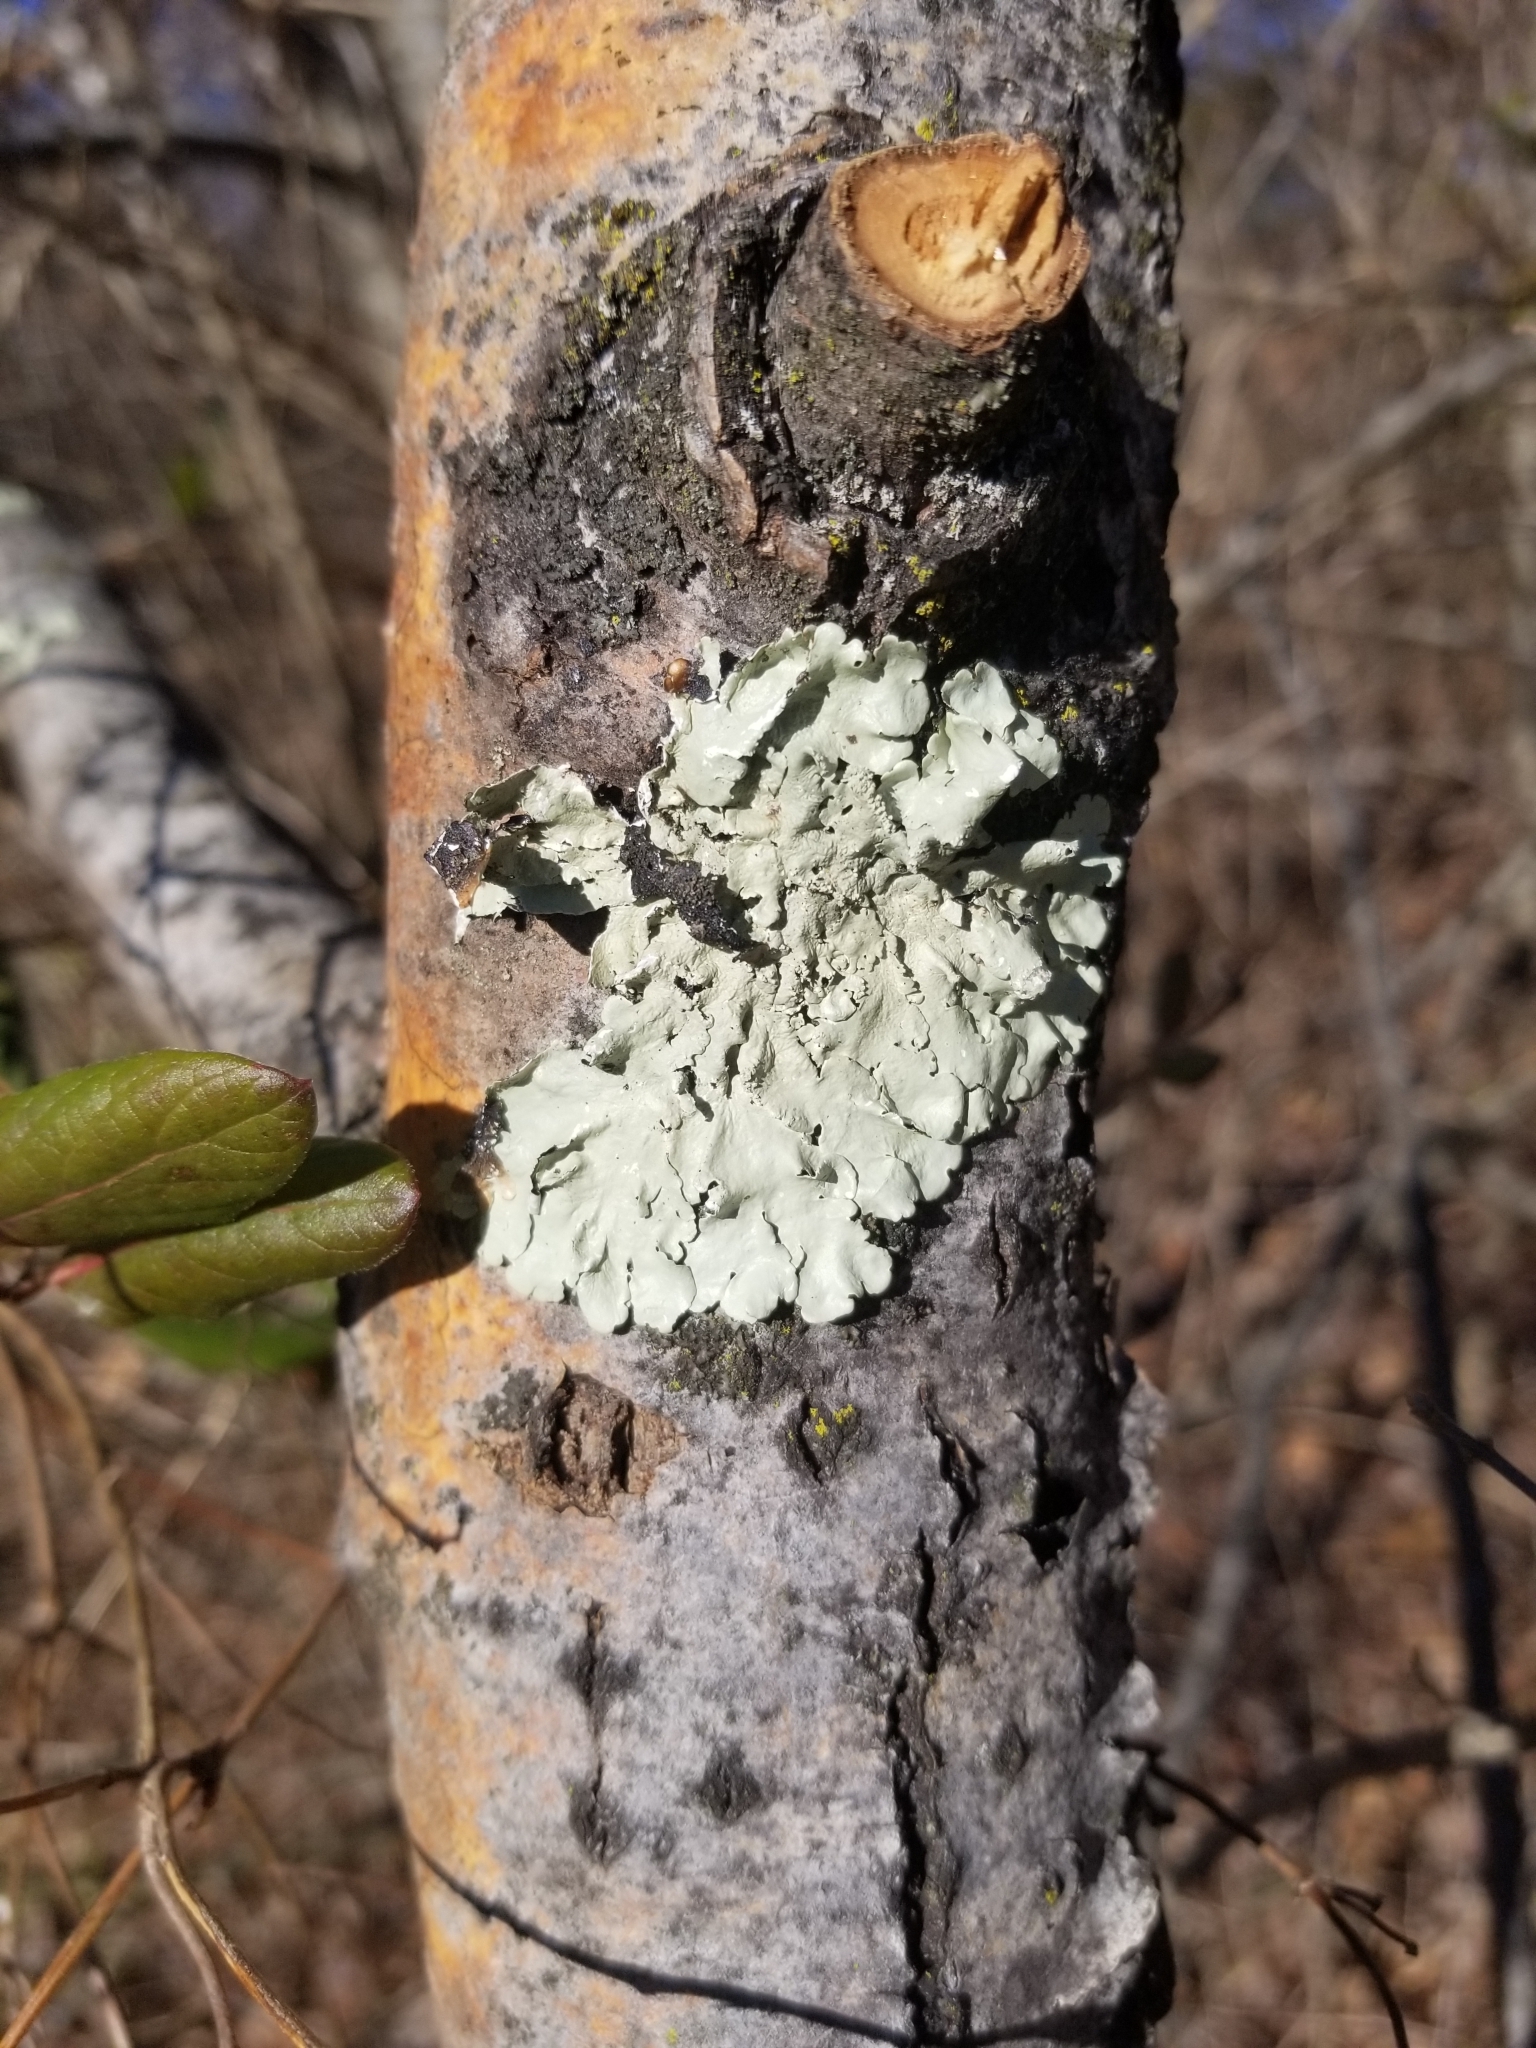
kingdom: Fungi
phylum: Ascomycota
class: Lecanoromycetes
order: Lecanorales
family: Parmeliaceae
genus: Flavoparmelia
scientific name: Flavoparmelia caperata
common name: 40-mile per hour lichen
